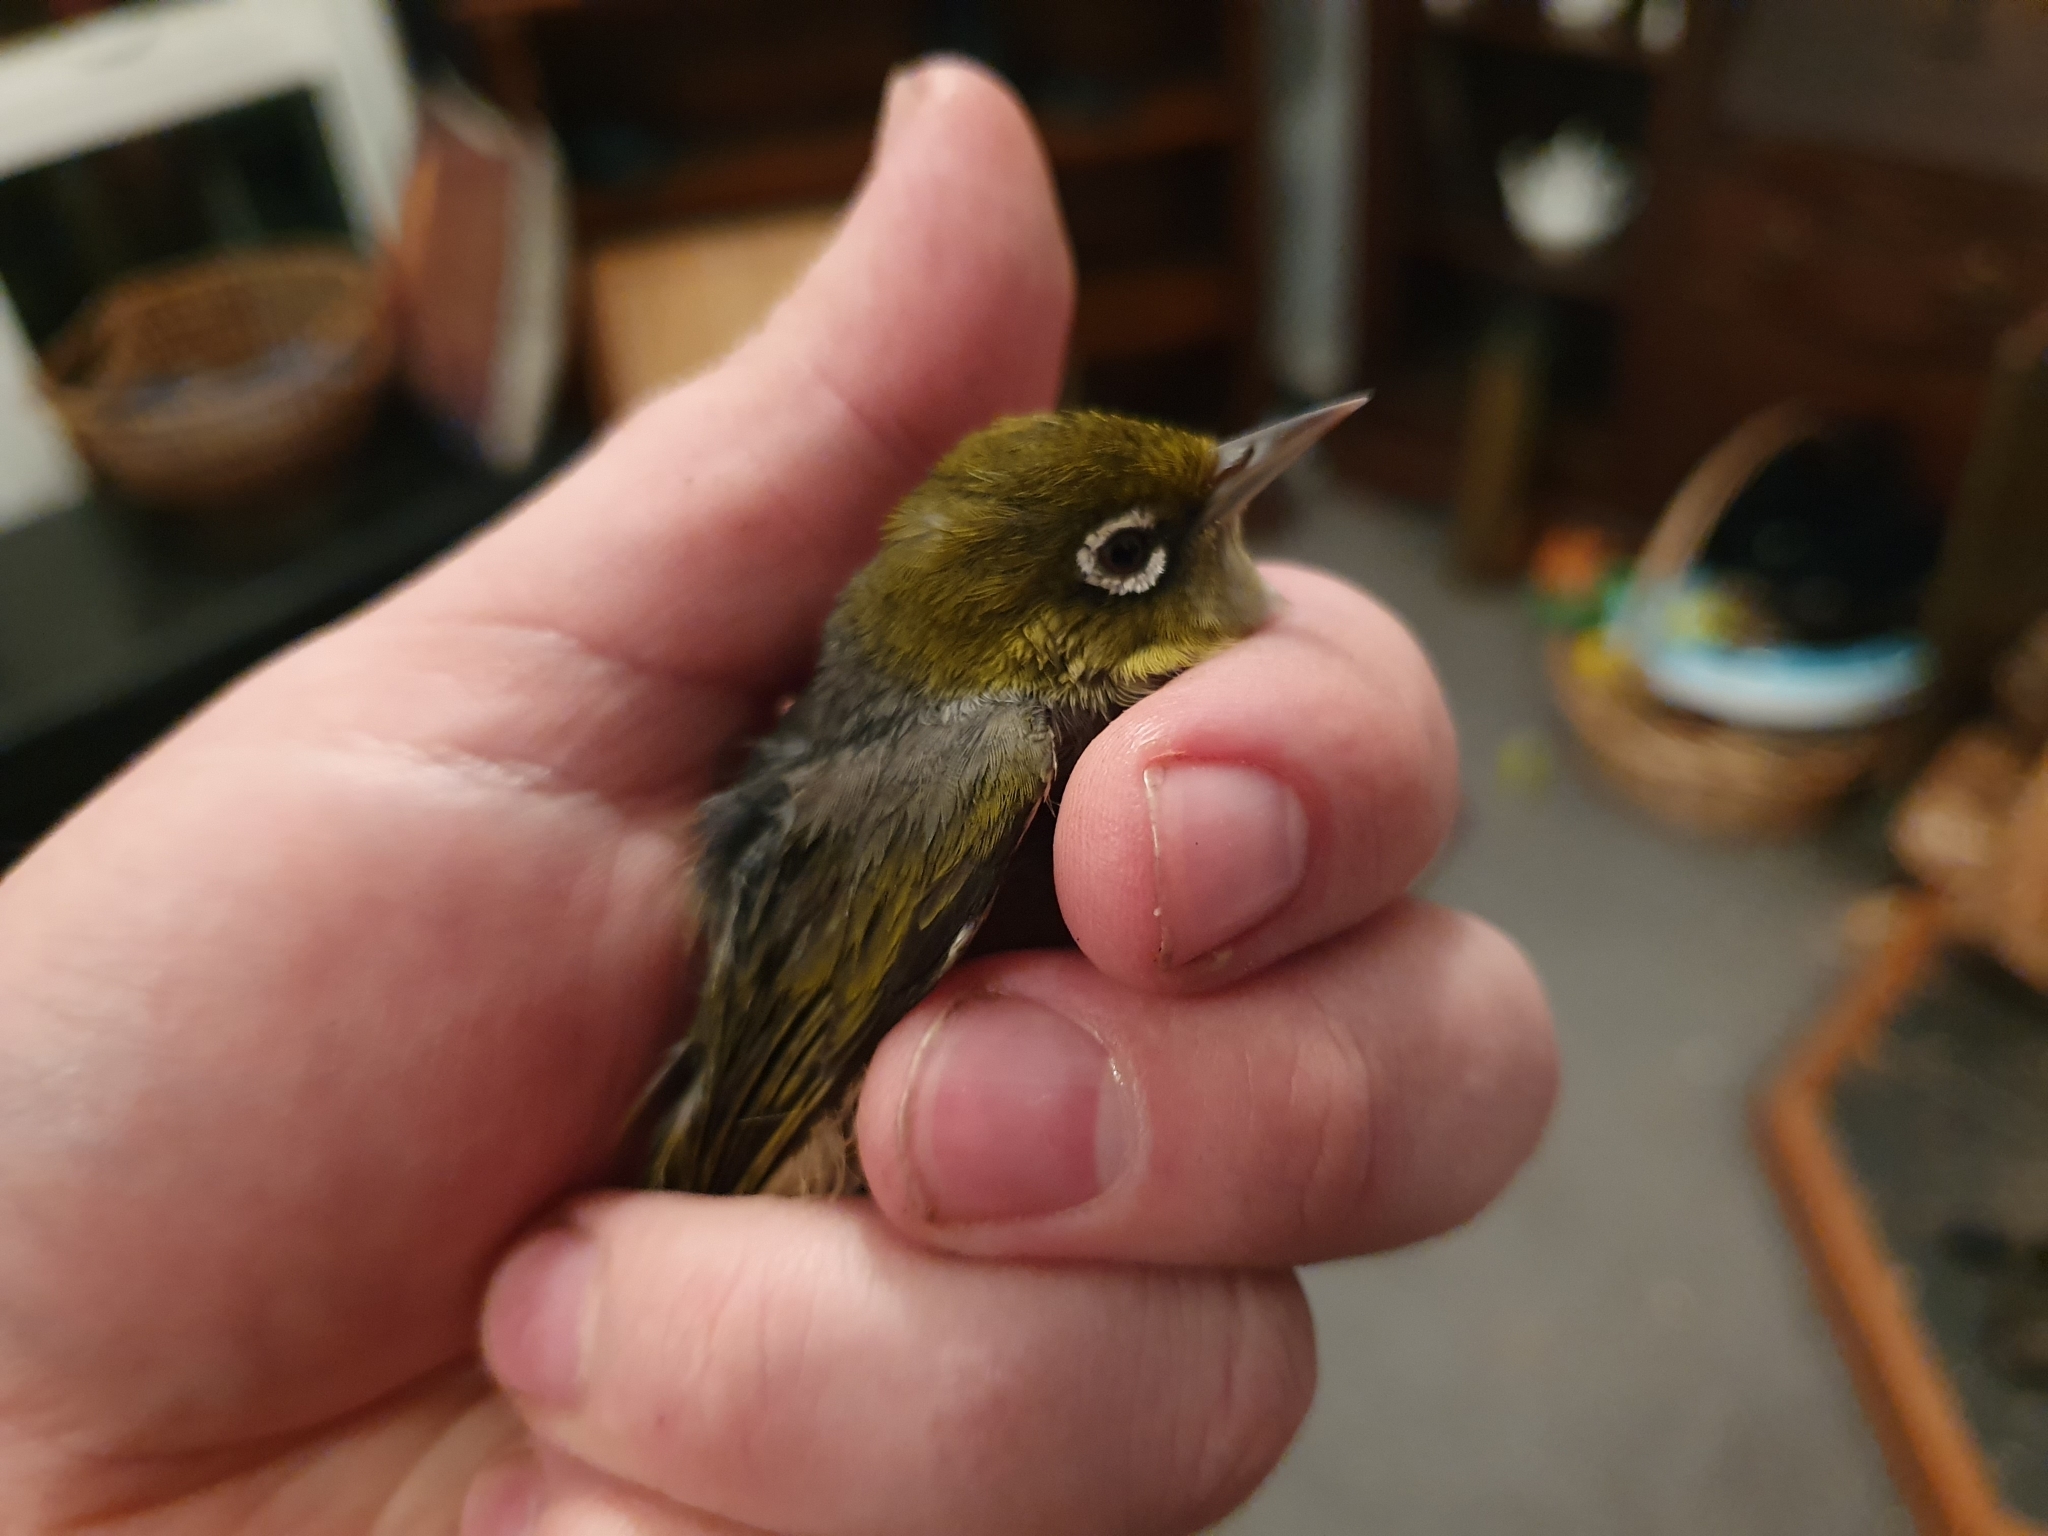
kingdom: Animalia
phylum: Chordata
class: Aves
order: Passeriformes
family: Zosteropidae
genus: Zosterops
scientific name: Zosterops lateralis
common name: Silvereye
